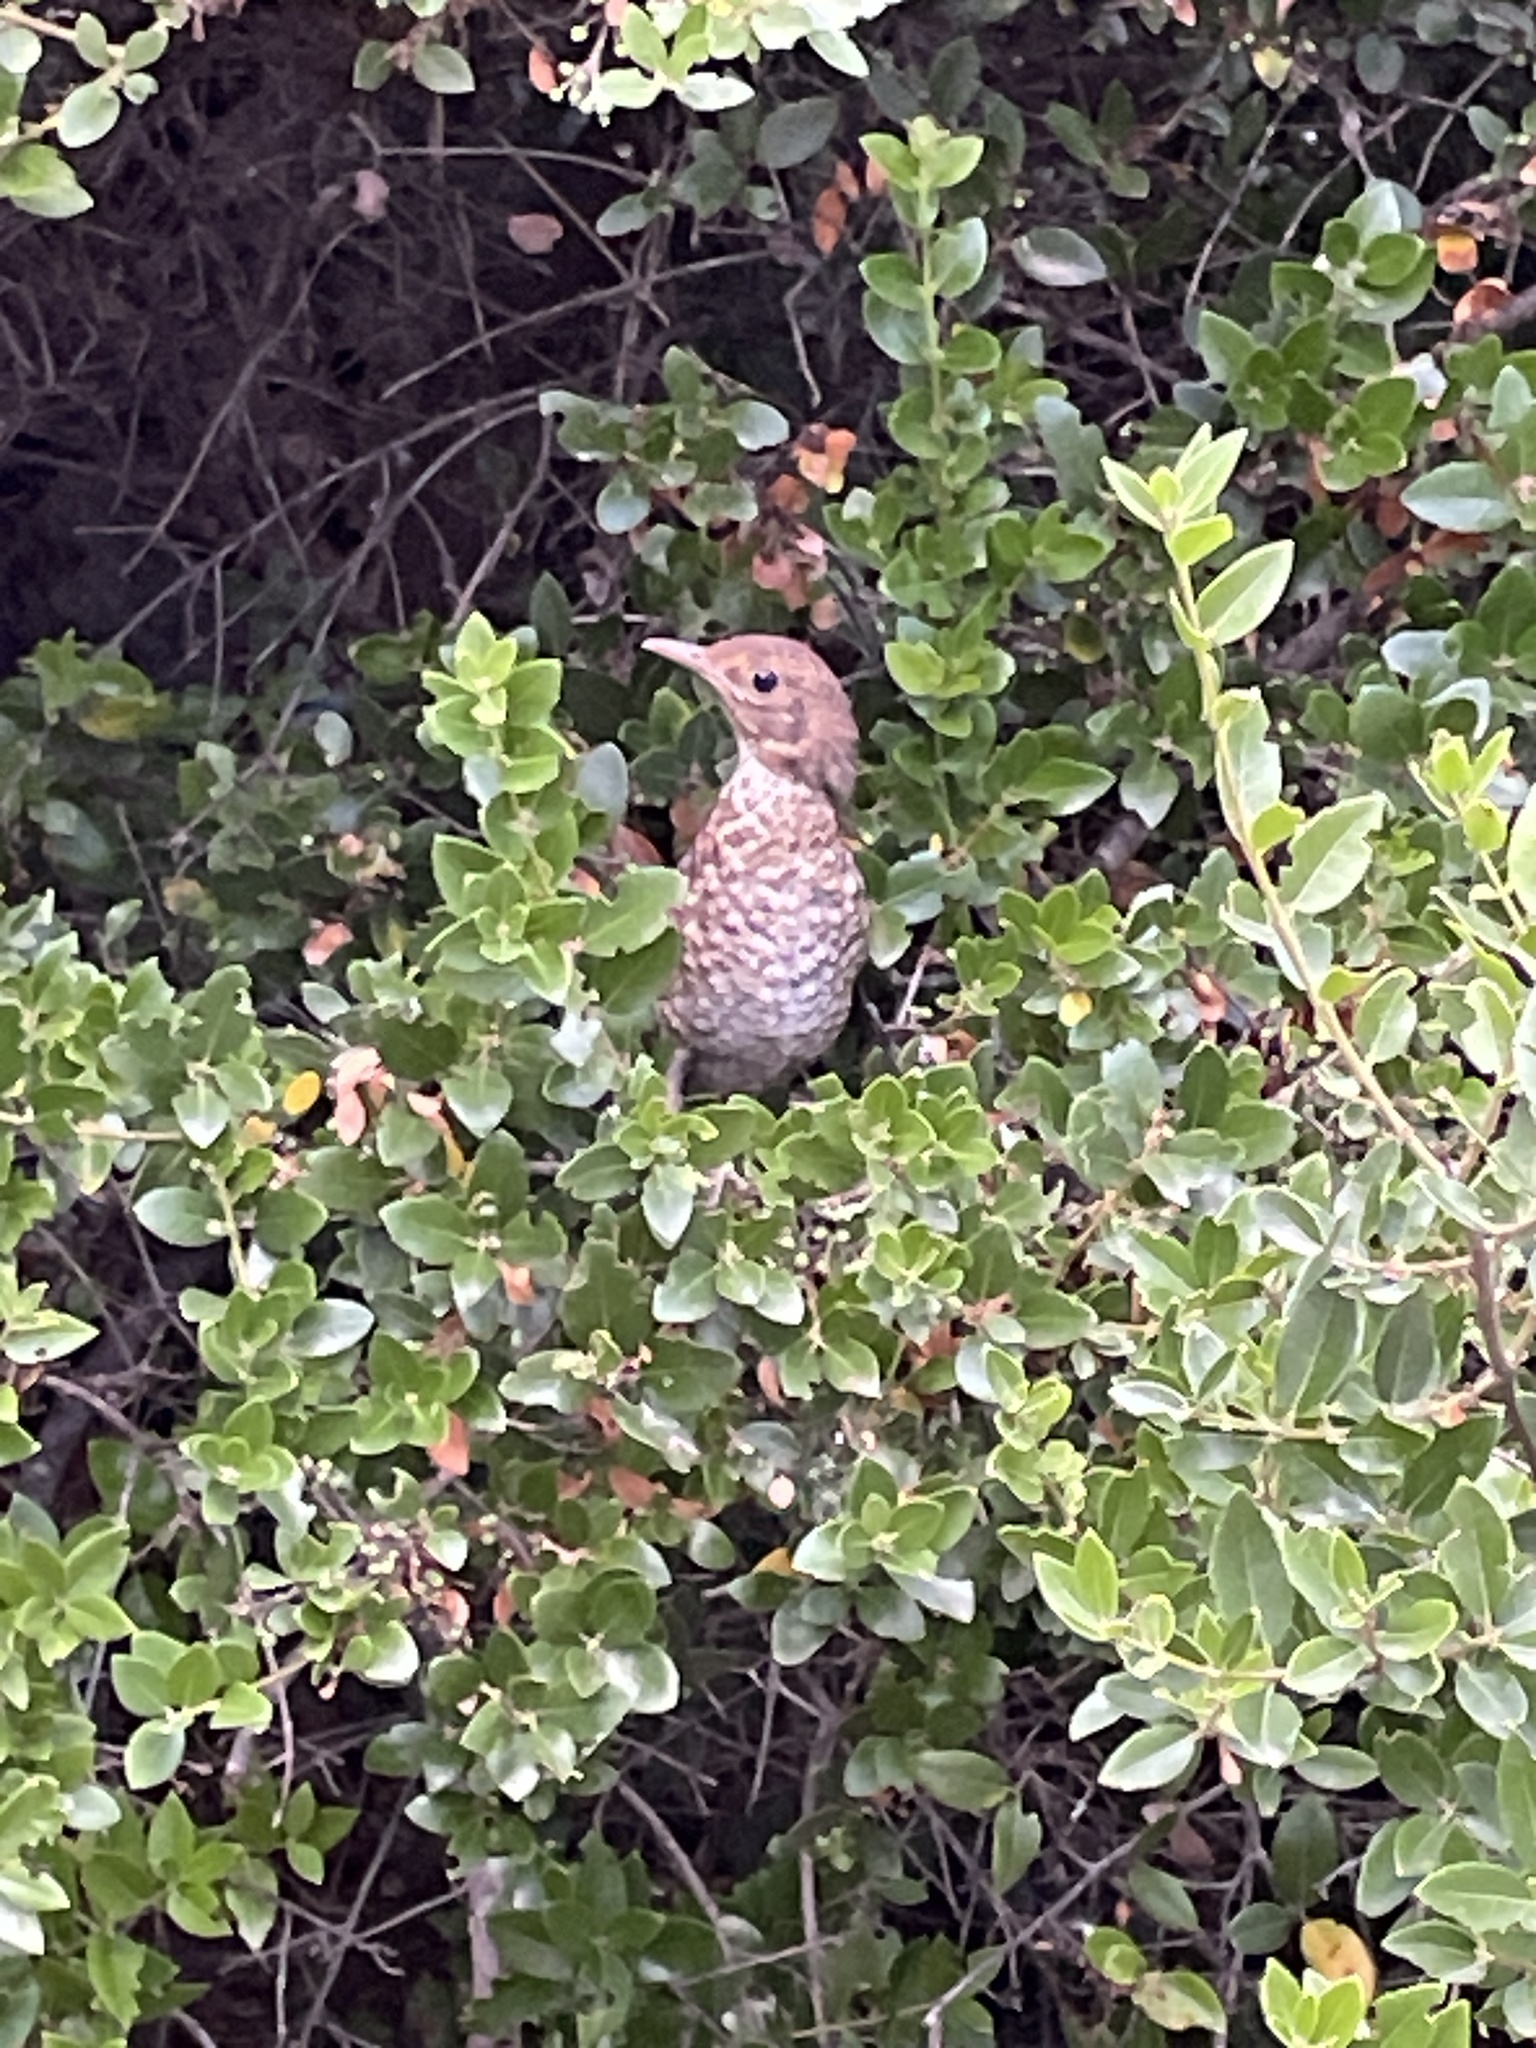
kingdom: Animalia
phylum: Chordata
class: Aves
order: Passeriformes
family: Turdidae
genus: Turdus
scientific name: Turdus merula
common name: Common blackbird
